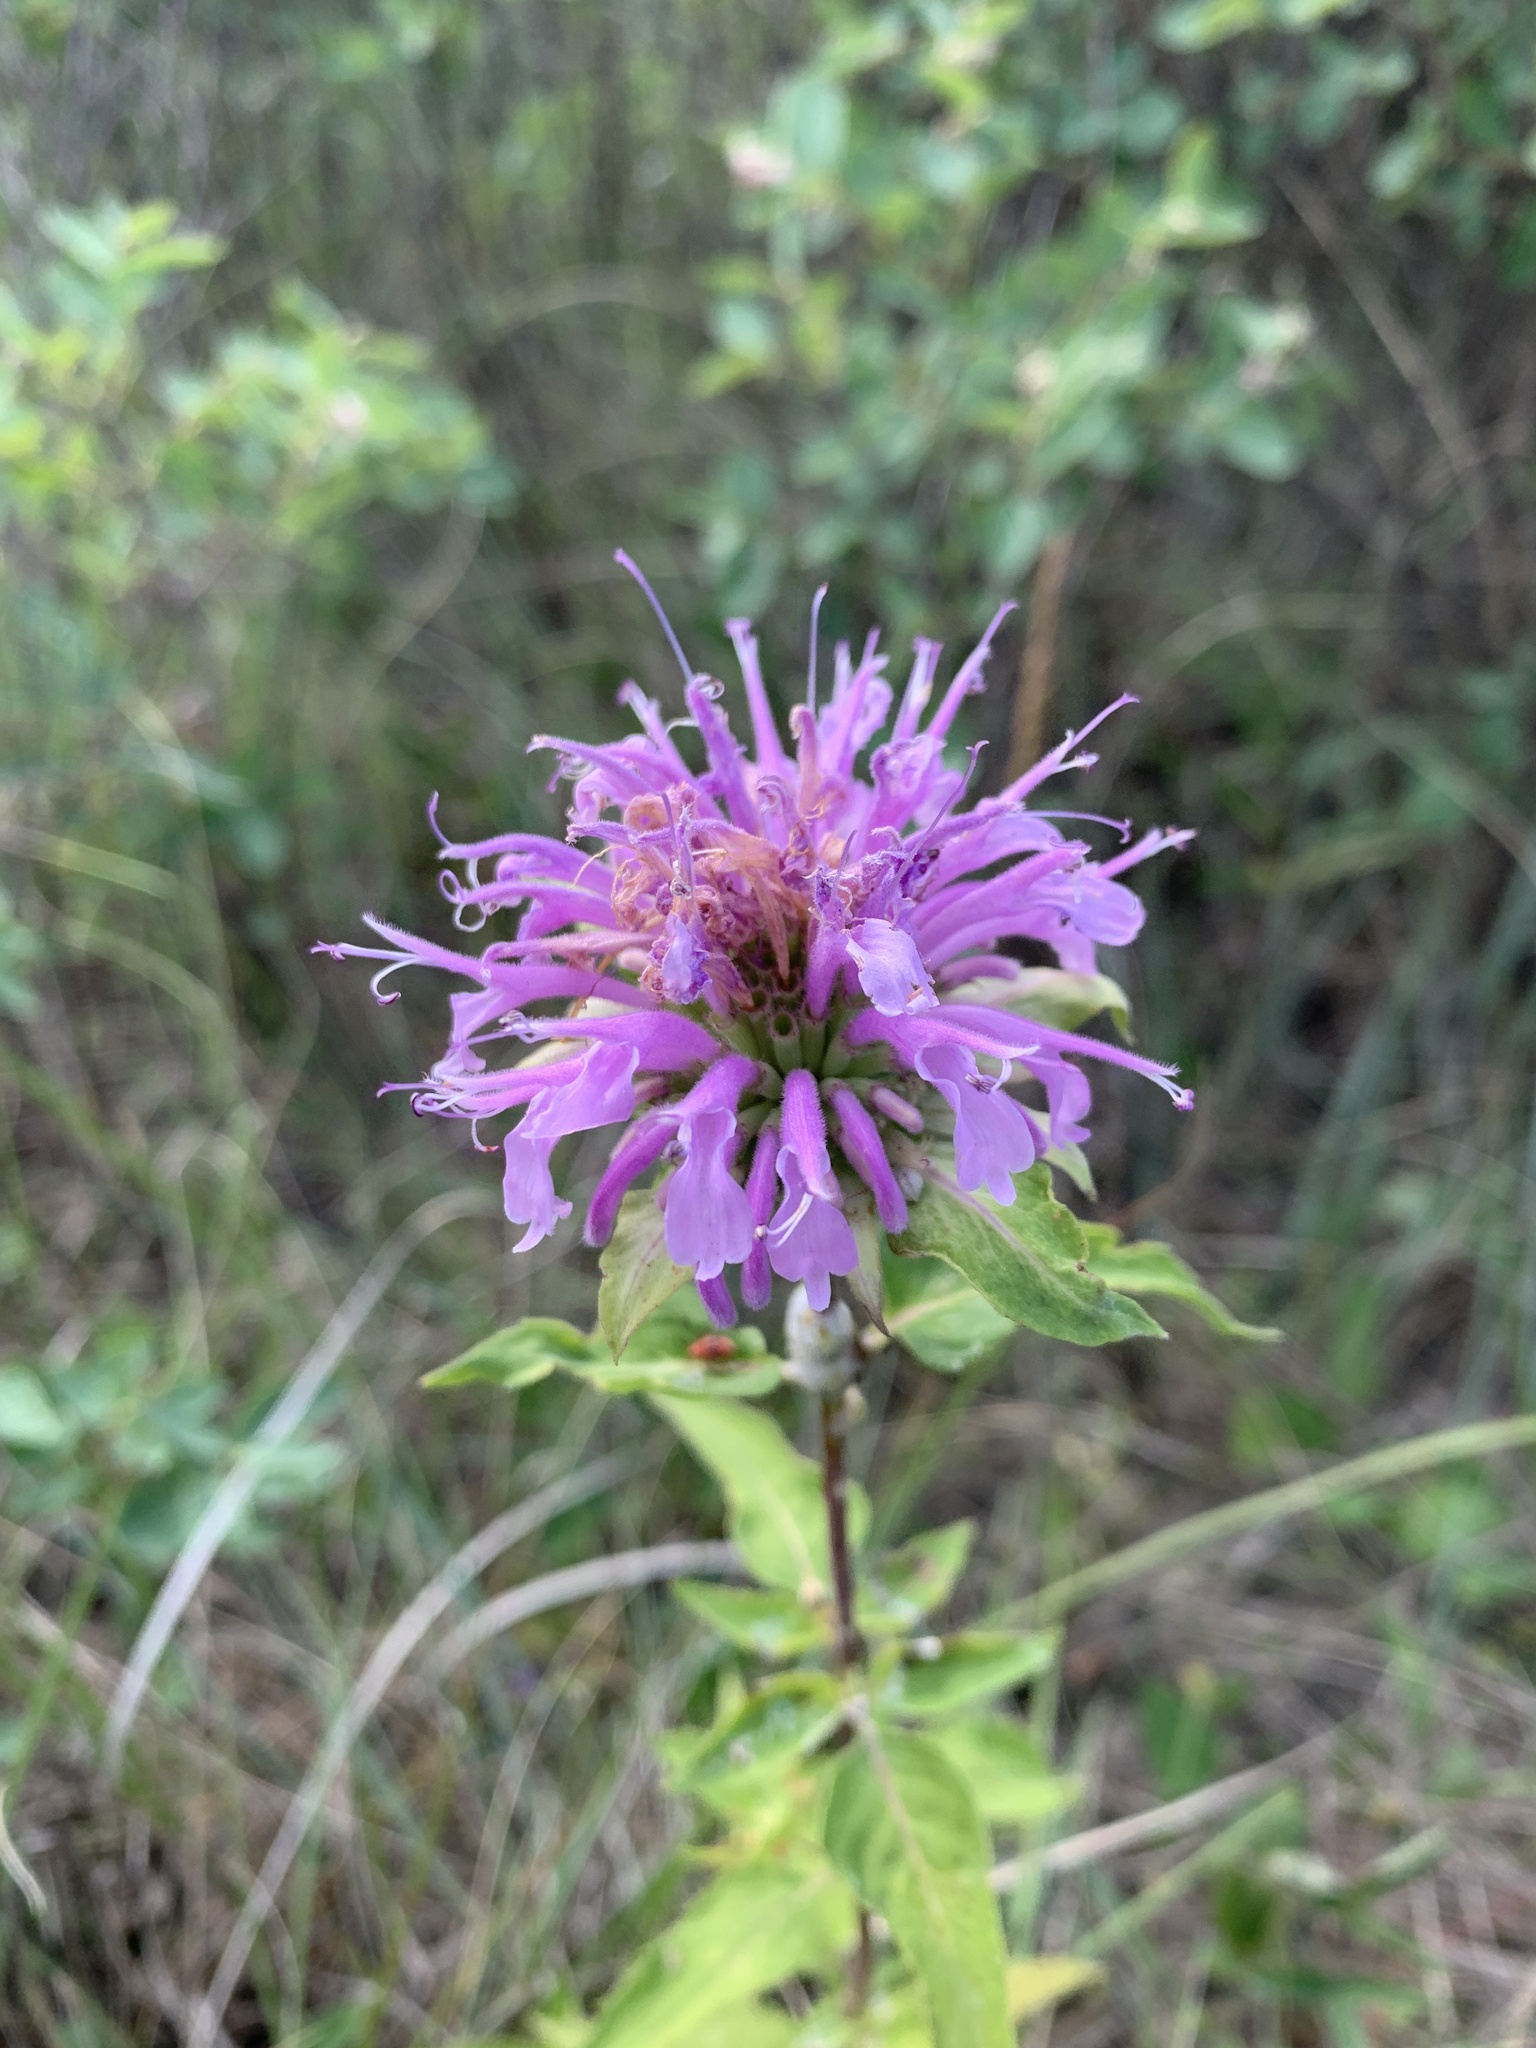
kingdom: Plantae
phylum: Tracheophyta
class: Magnoliopsida
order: Lamiales
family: Lamiaceae
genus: Monarda
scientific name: Monarda fistulosa
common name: Purple beebalm
